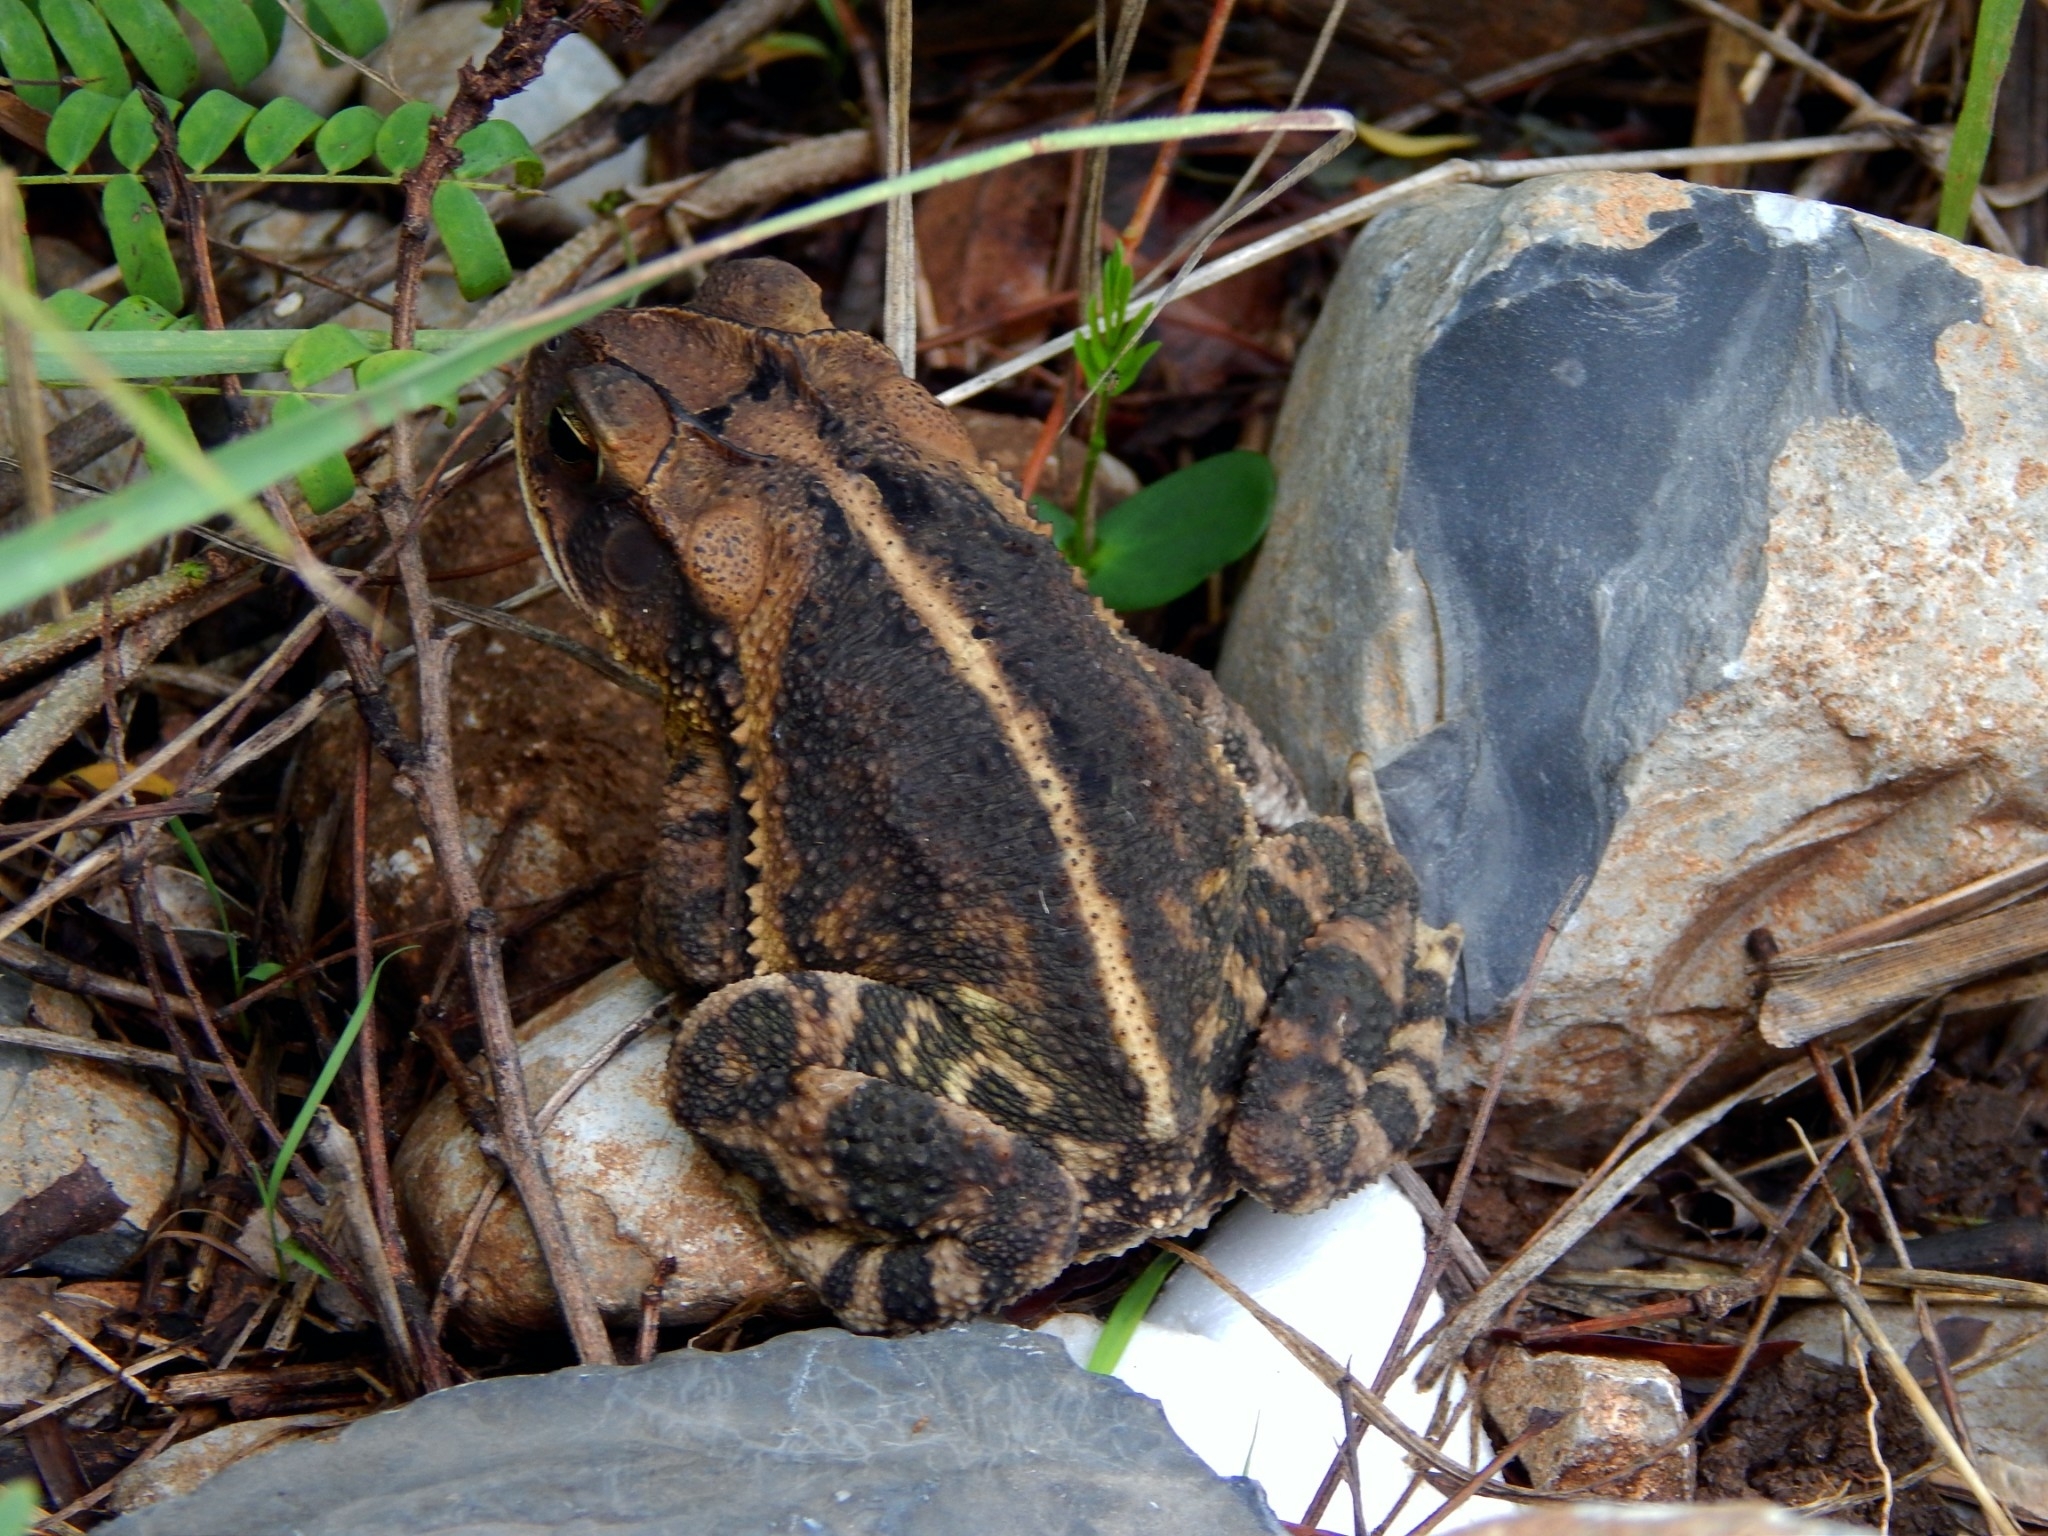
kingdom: Animalia
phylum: Chordata
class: Amphibia
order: Anura
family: Bufonidae
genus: Incilius
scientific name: Incilius nebulifer
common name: Gulf coast toad
